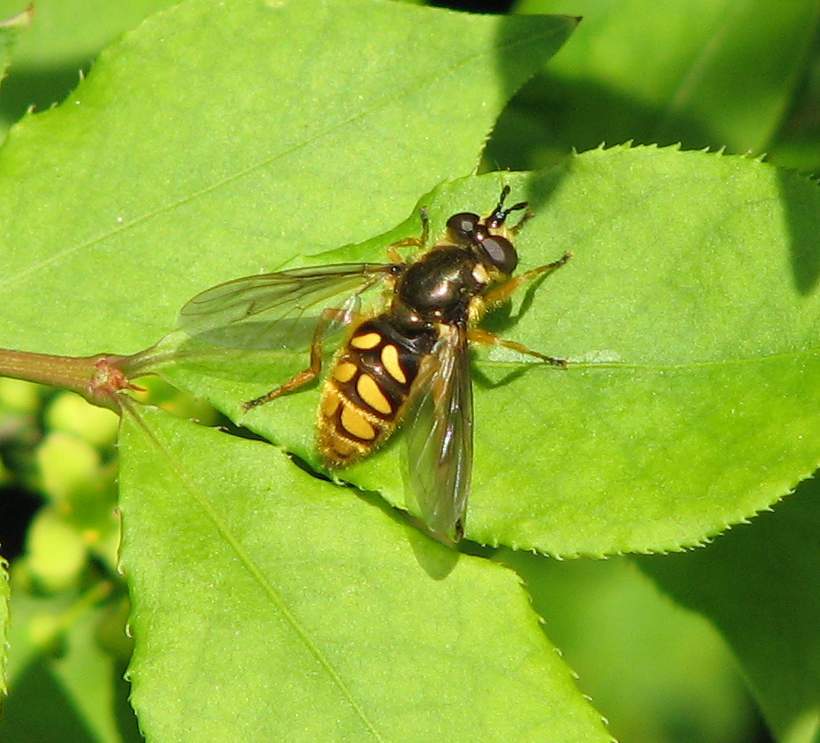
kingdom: Animalia
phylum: Arthropoda
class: Insecta
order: Diptera
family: Syrphidae
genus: Somula
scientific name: Somula decora
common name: Spotted wood fly
